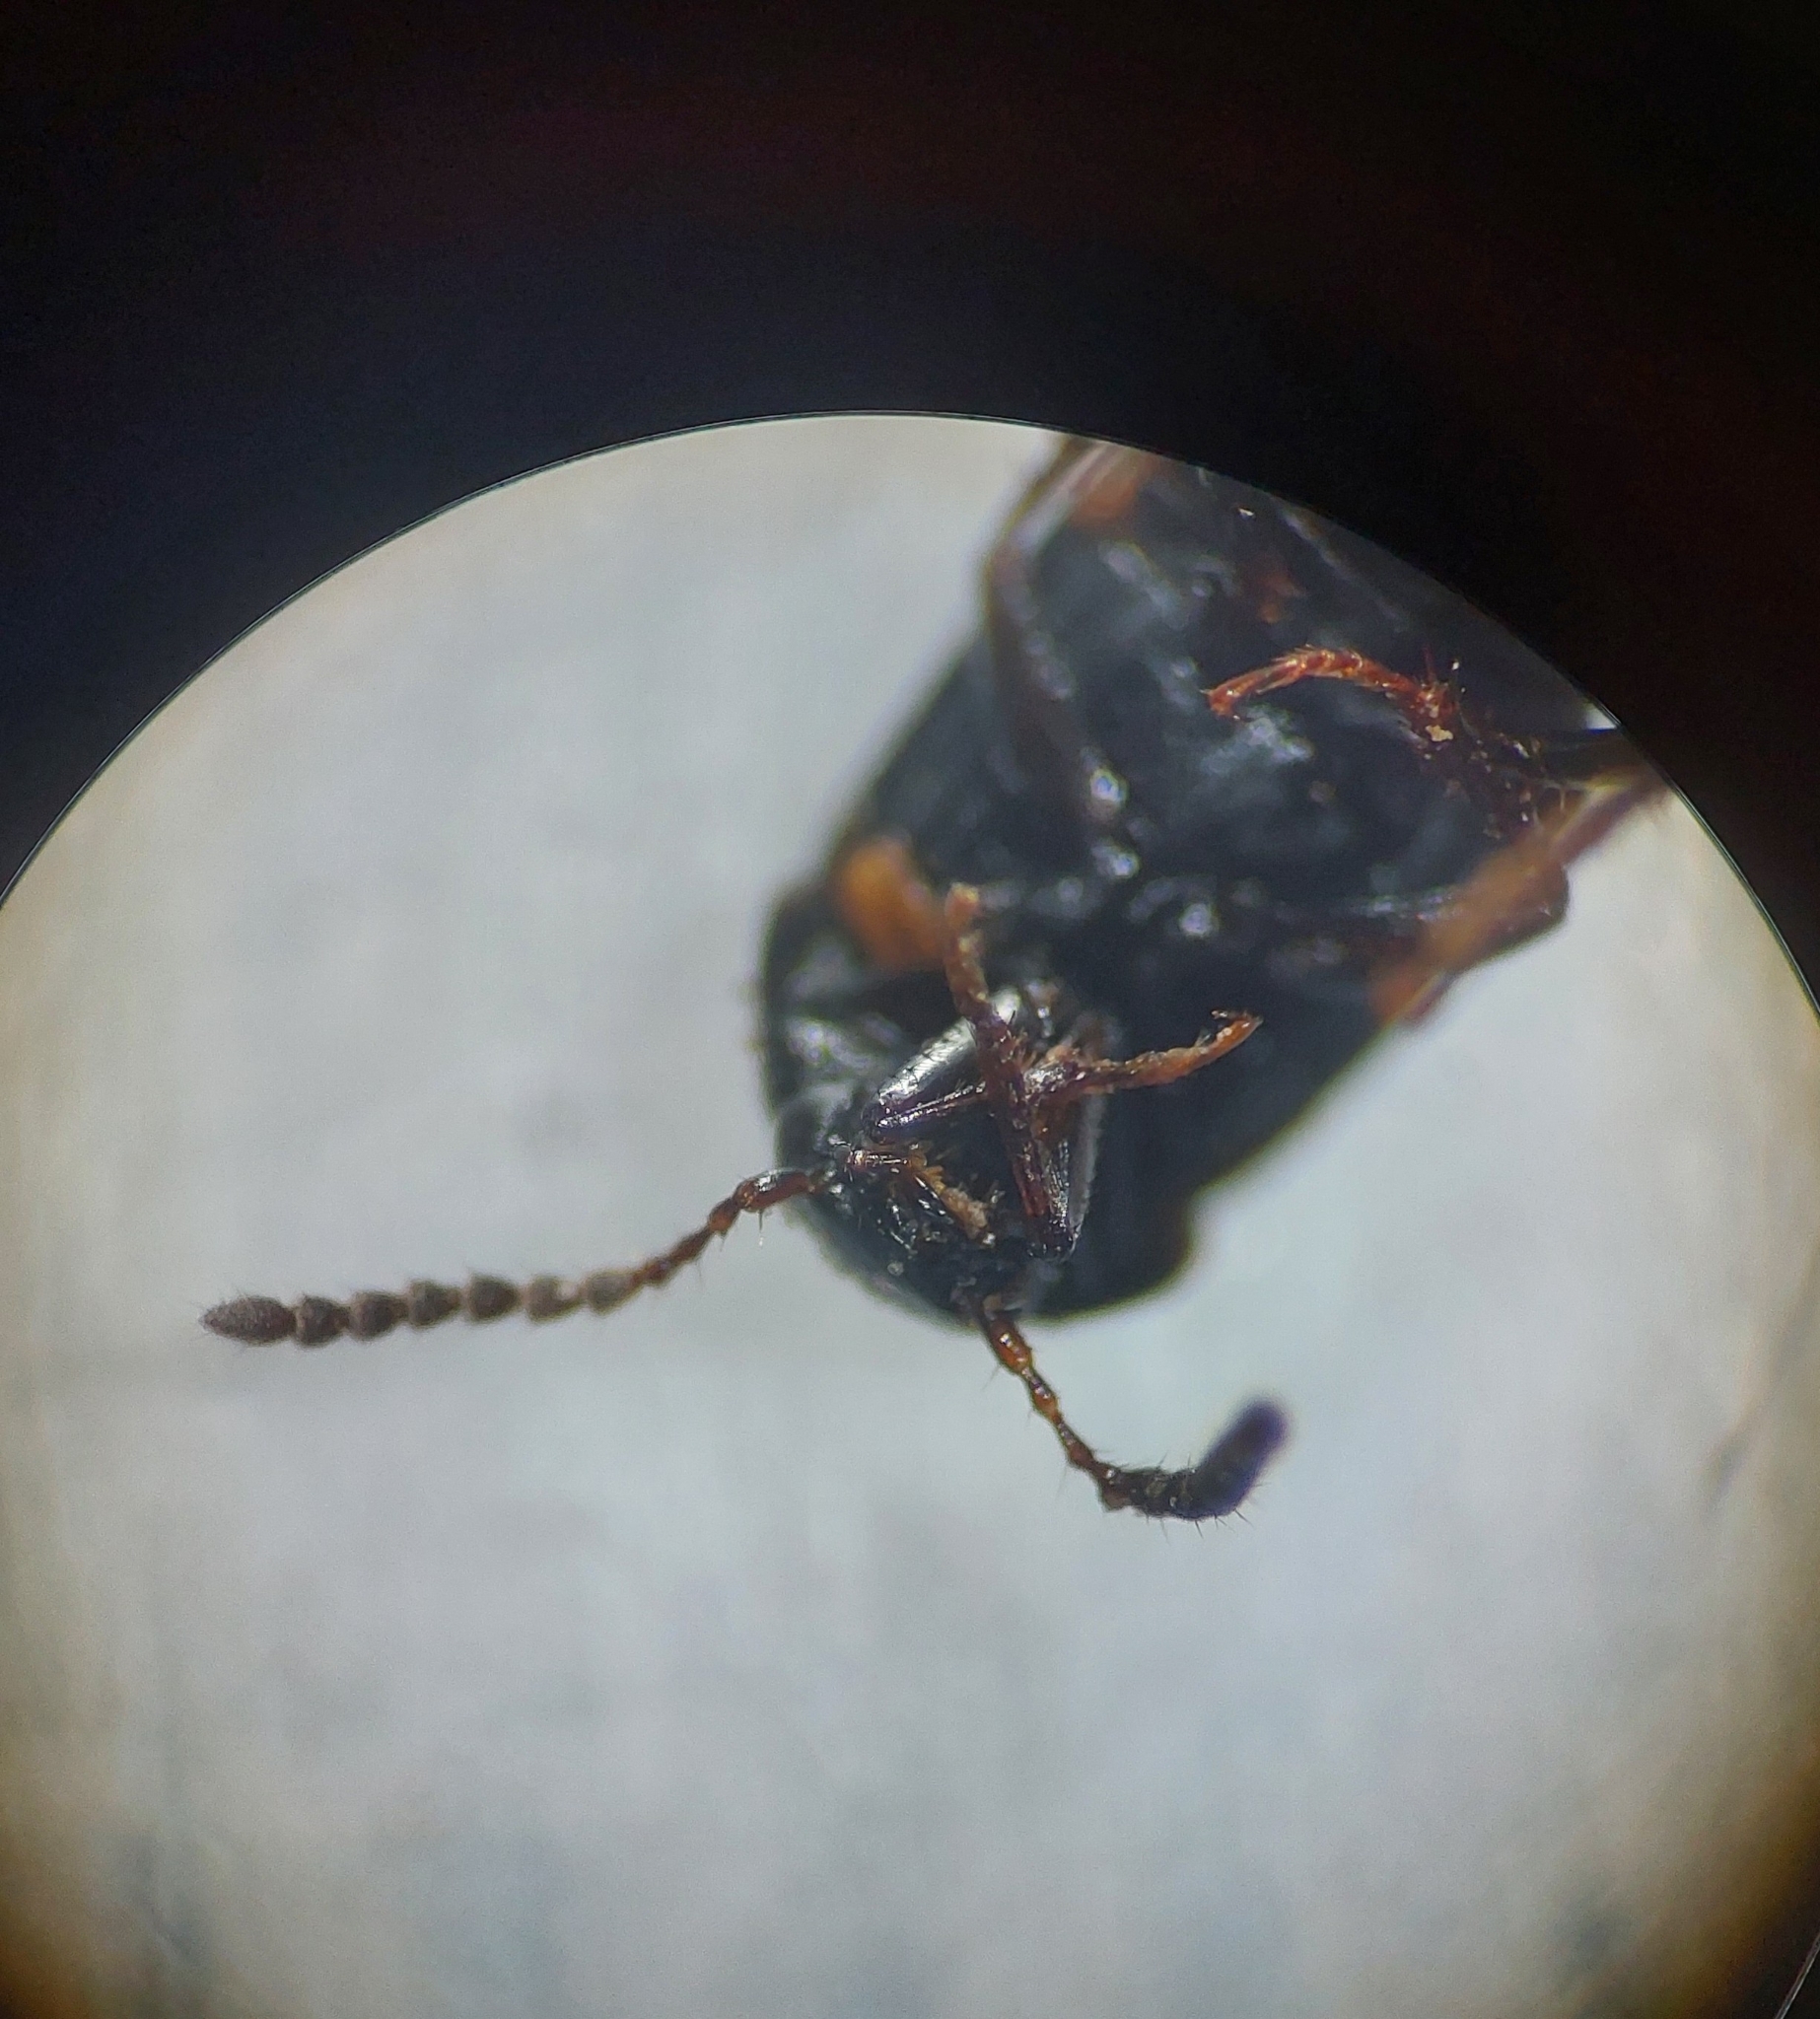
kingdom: Animalia
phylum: Arthropoda
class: Insecta
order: Coleoptera
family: Staphylinidae
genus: Tachinus
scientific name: Tachinus subterraneus
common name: Staph beetle
